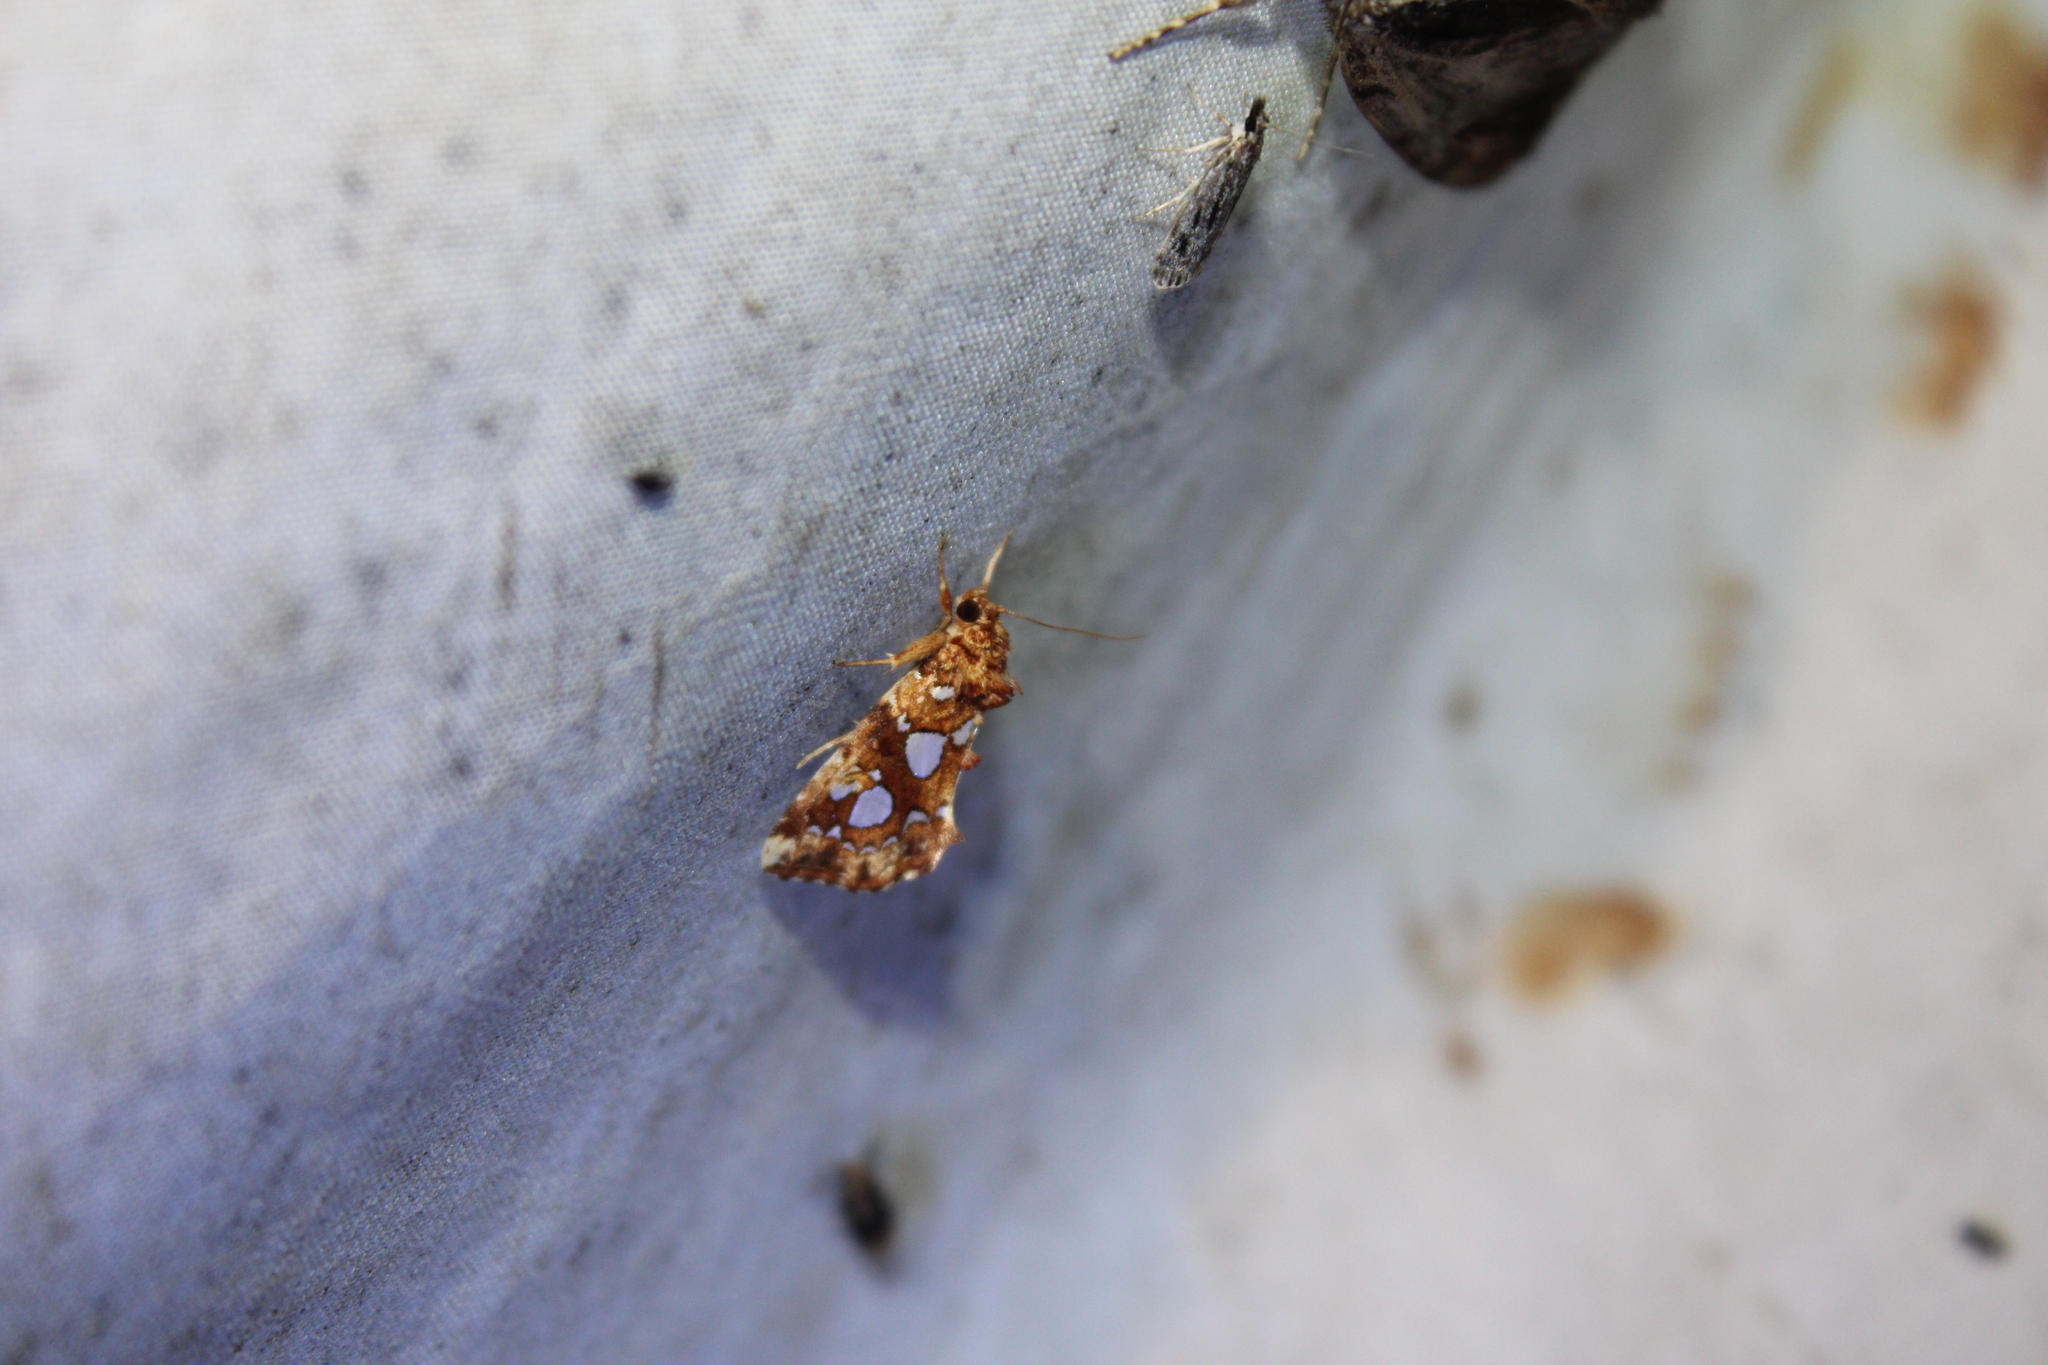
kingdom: Animalia
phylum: Arthropoda
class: Insecta
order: Lepidoptera
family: Noctuidae
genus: Callopistria
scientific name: Callopistria cordata
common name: Silver-spotted fern moth
